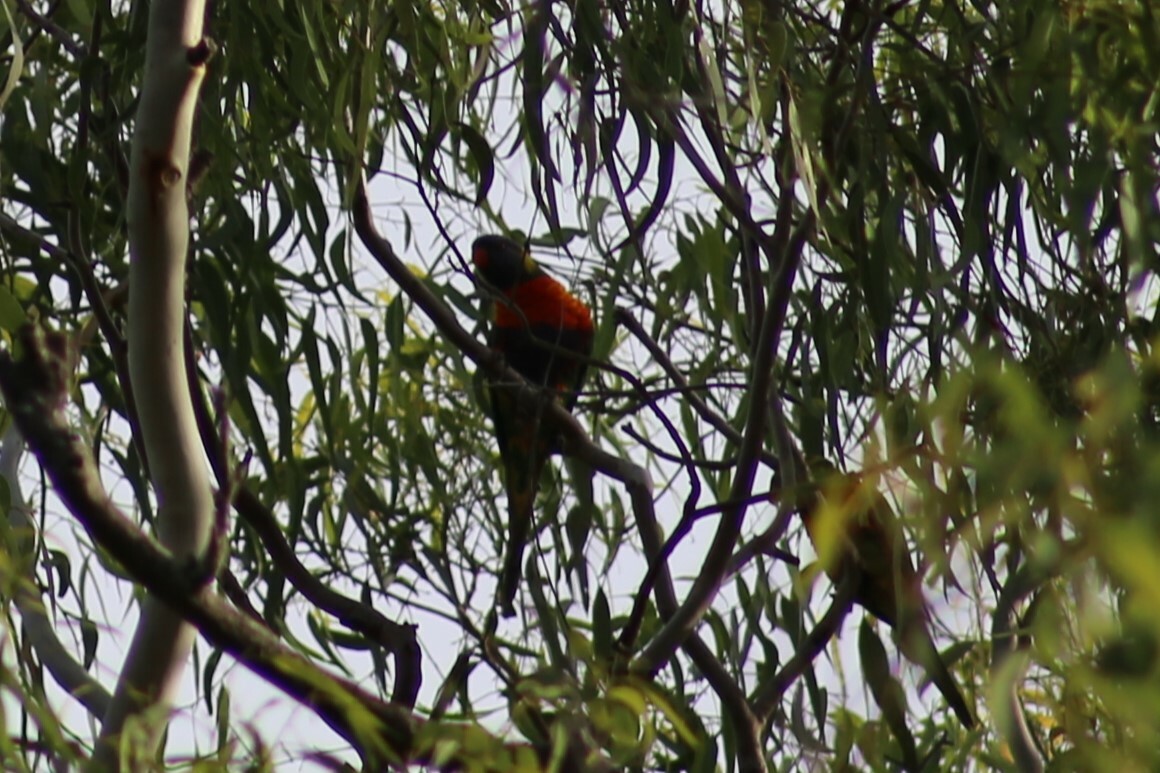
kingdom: Animalia
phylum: Chordata
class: Aves
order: Psittaciformes
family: Psittacidae
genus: Trichoglossus
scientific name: Trichoglossus haematodus
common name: Coconut lorikeet
